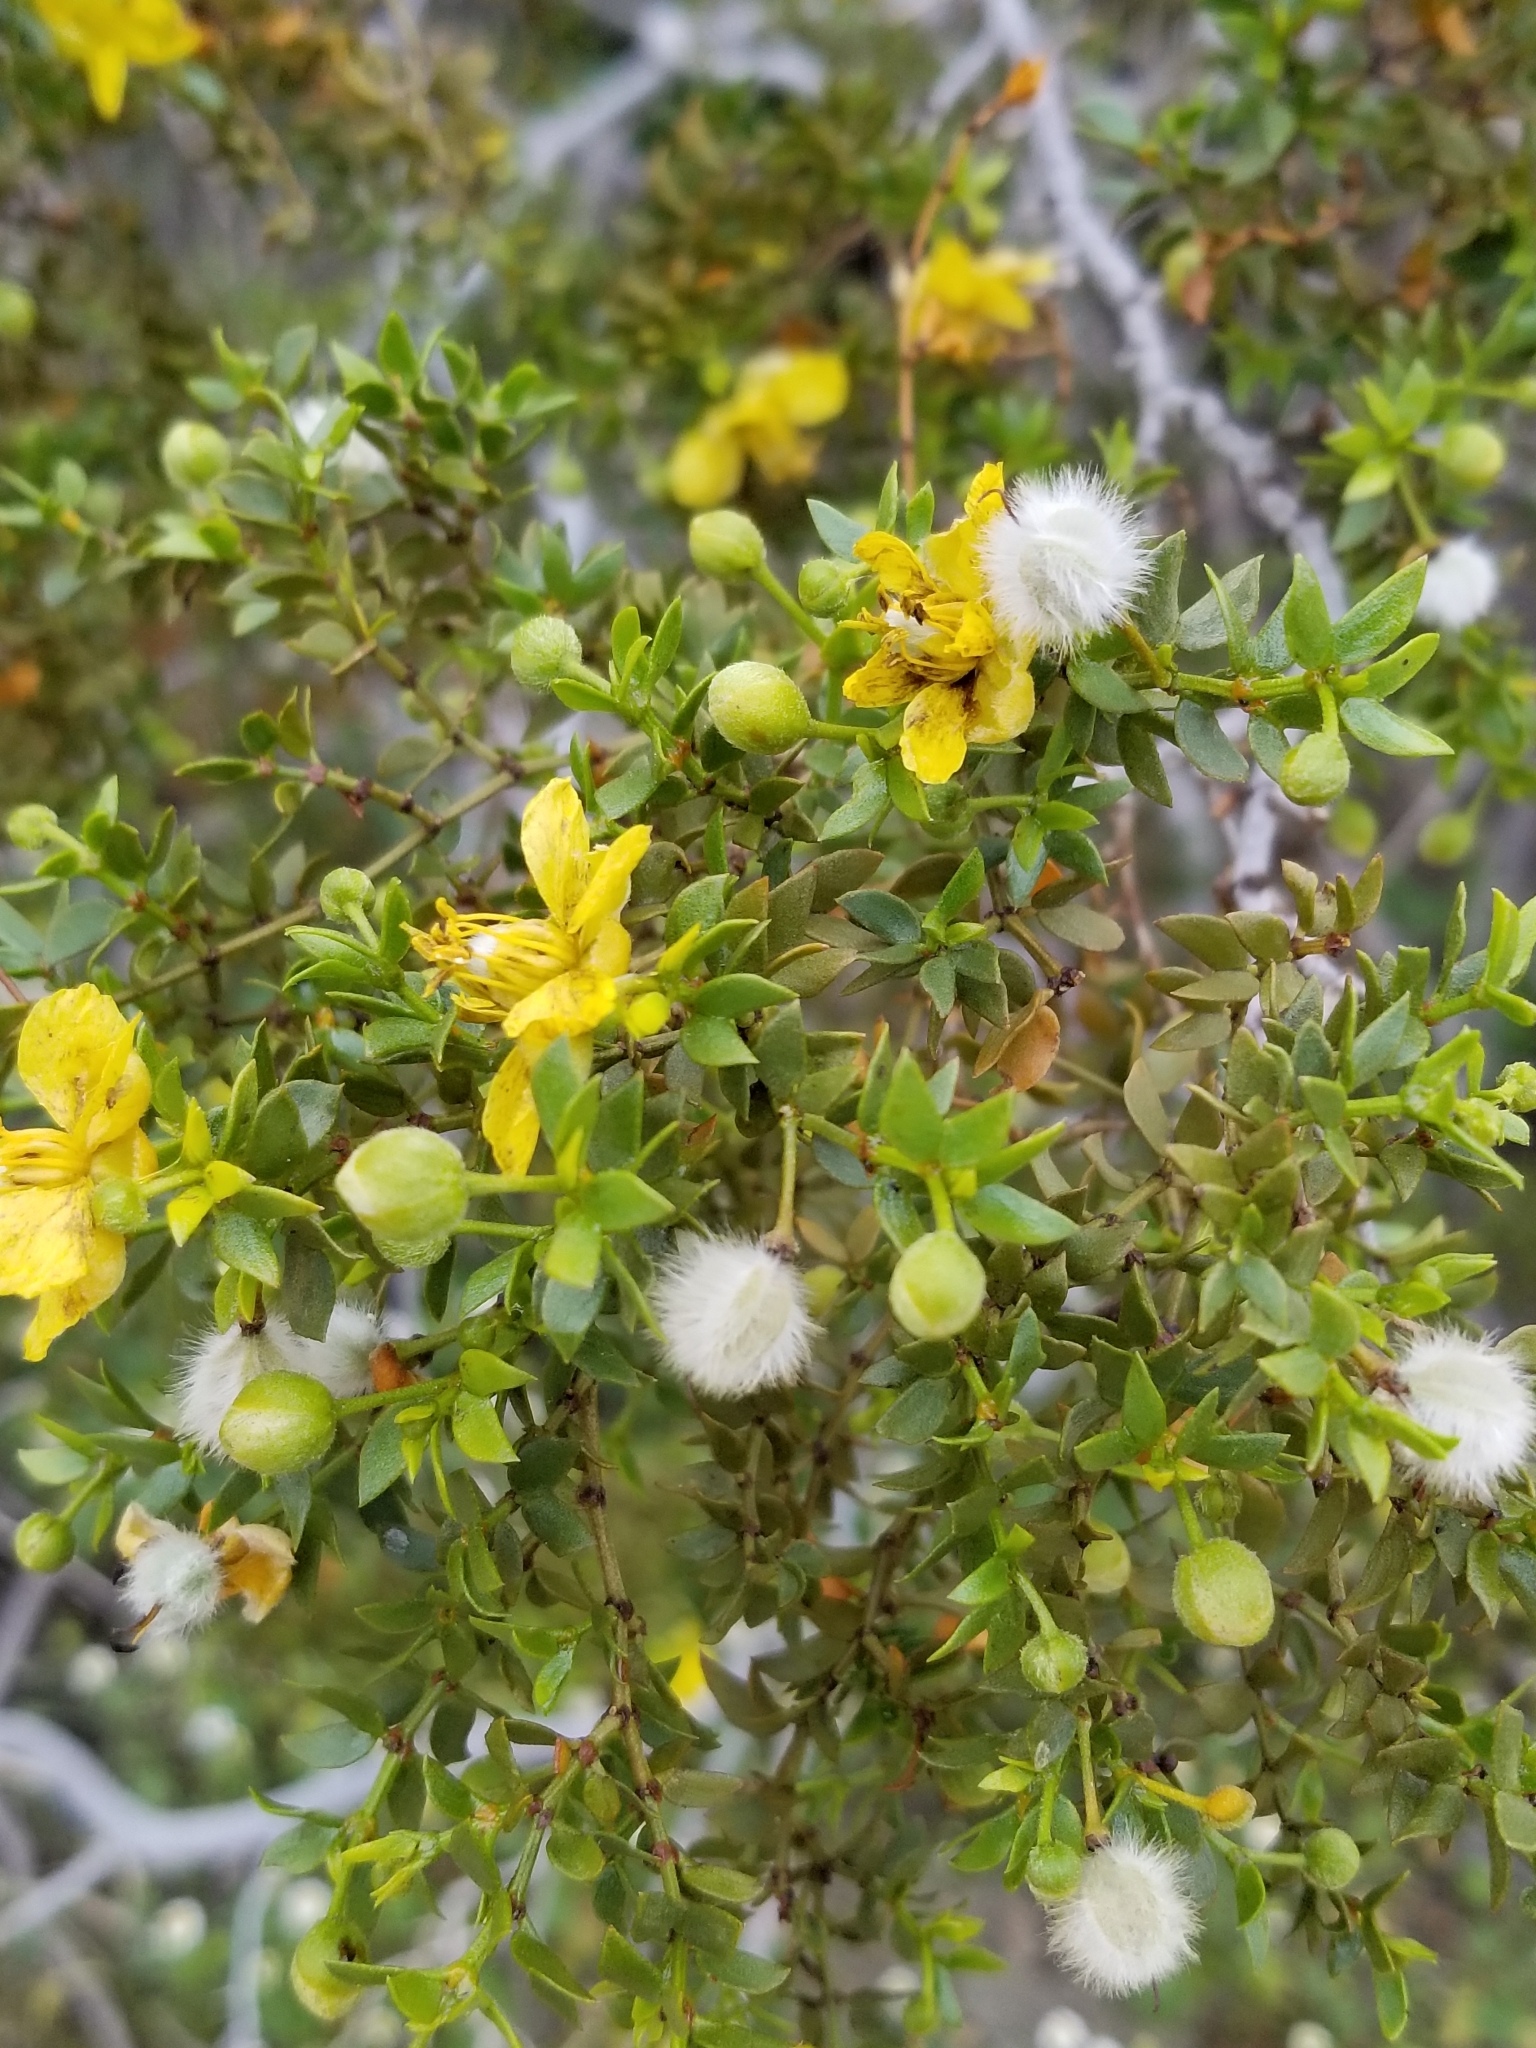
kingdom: Plantae
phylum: Tracheophyta
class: Magnoliopsida
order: Zygophyllales
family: Zygophyllaceae
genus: Larrea
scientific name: Larrea tridentata
